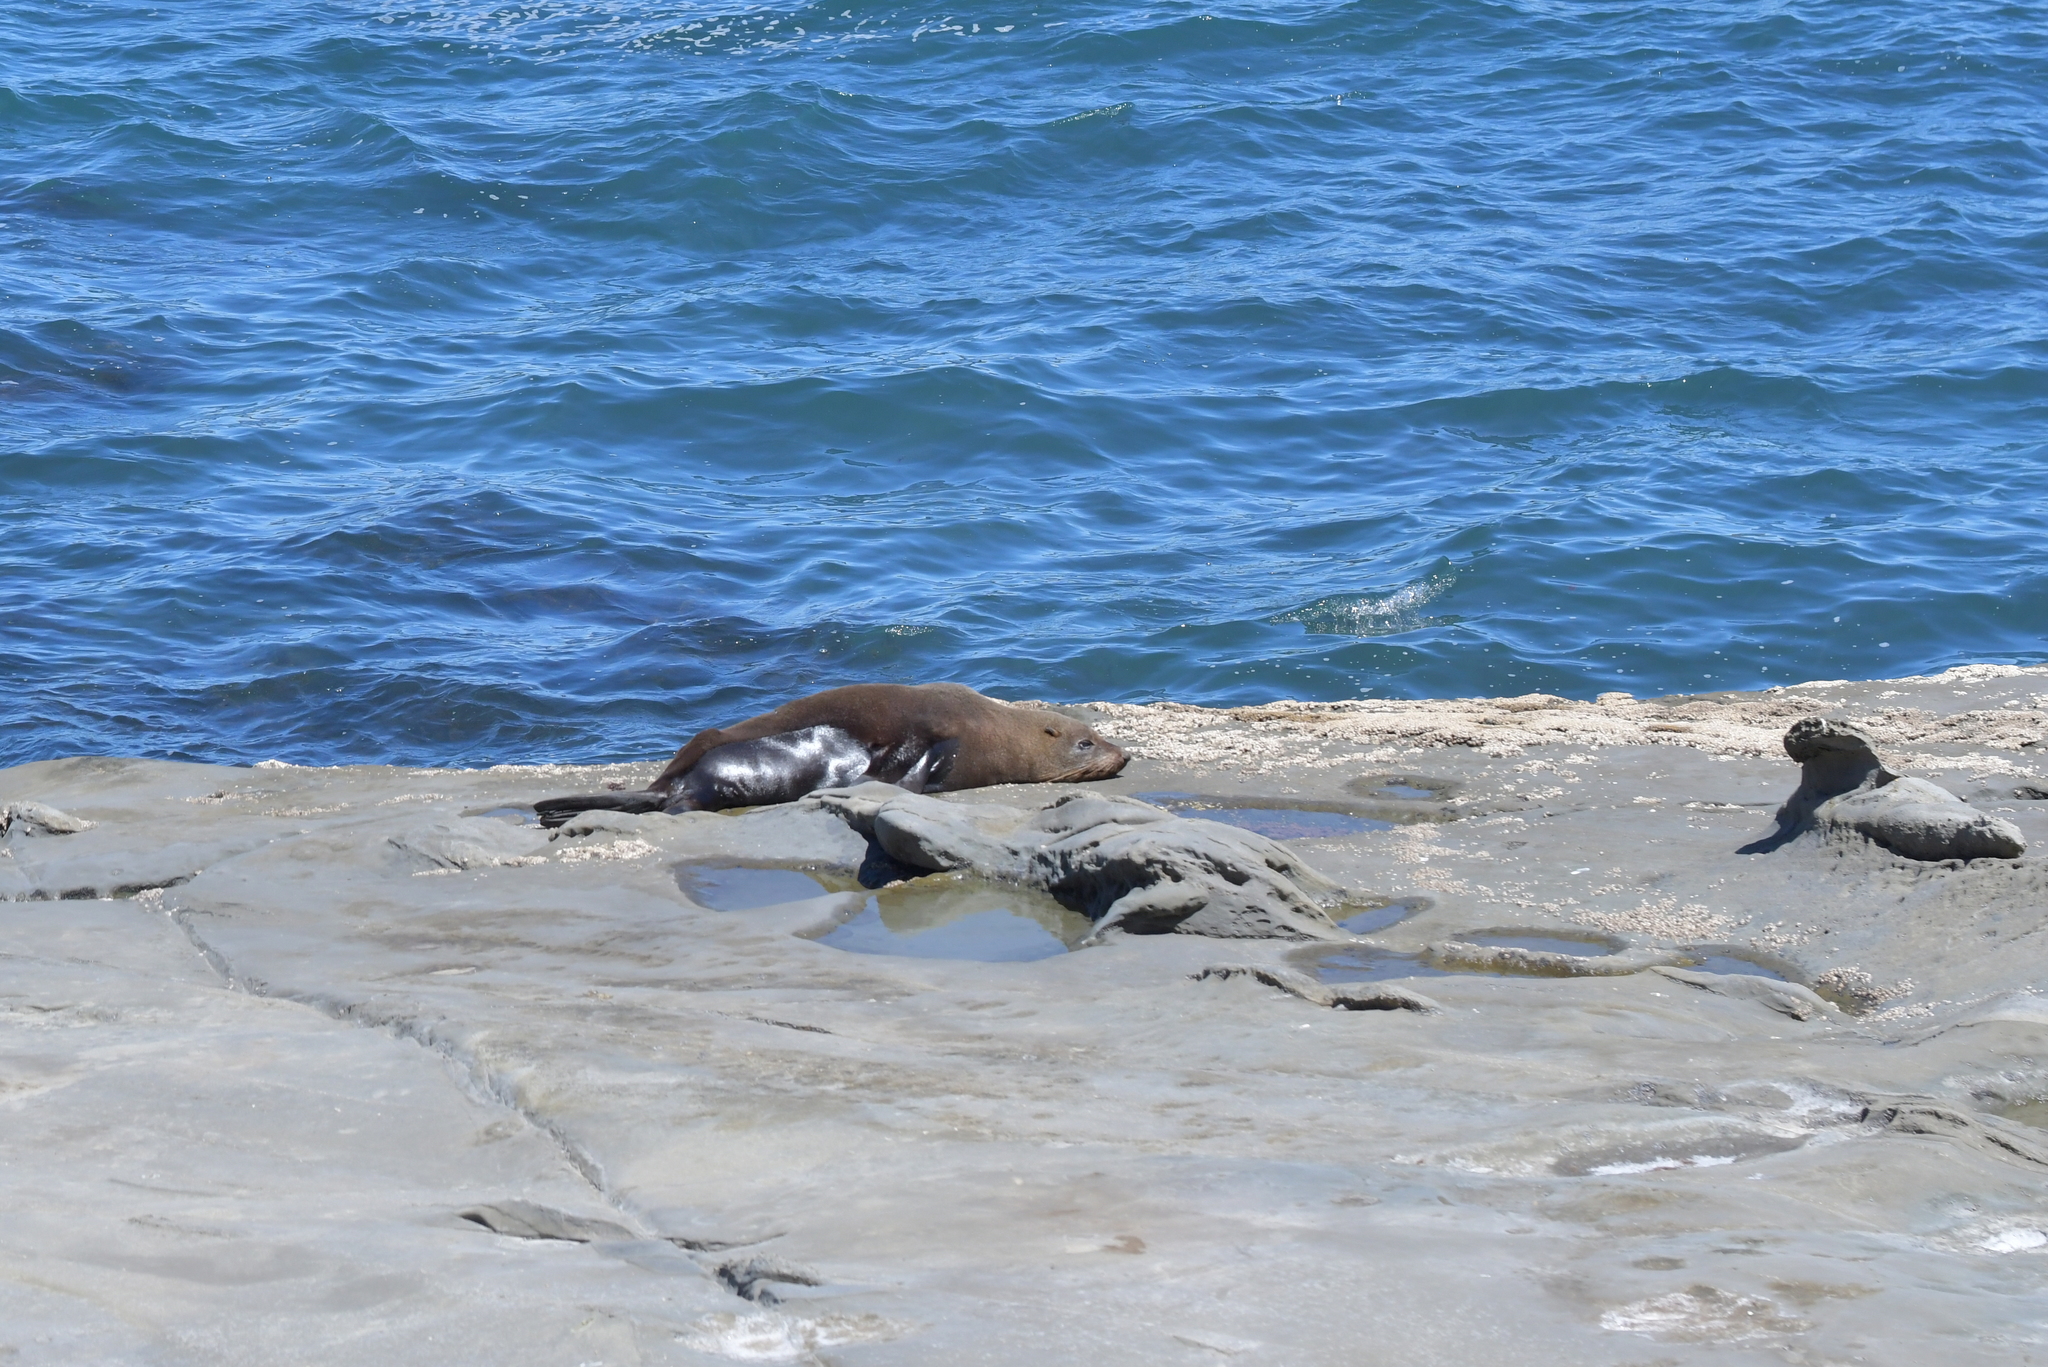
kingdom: Animalia
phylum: Chordata
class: Mammalia
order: Carnivora
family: Otariidae
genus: Arctocephalus
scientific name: Arctocephalus forsteri
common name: New zealand fur seal
